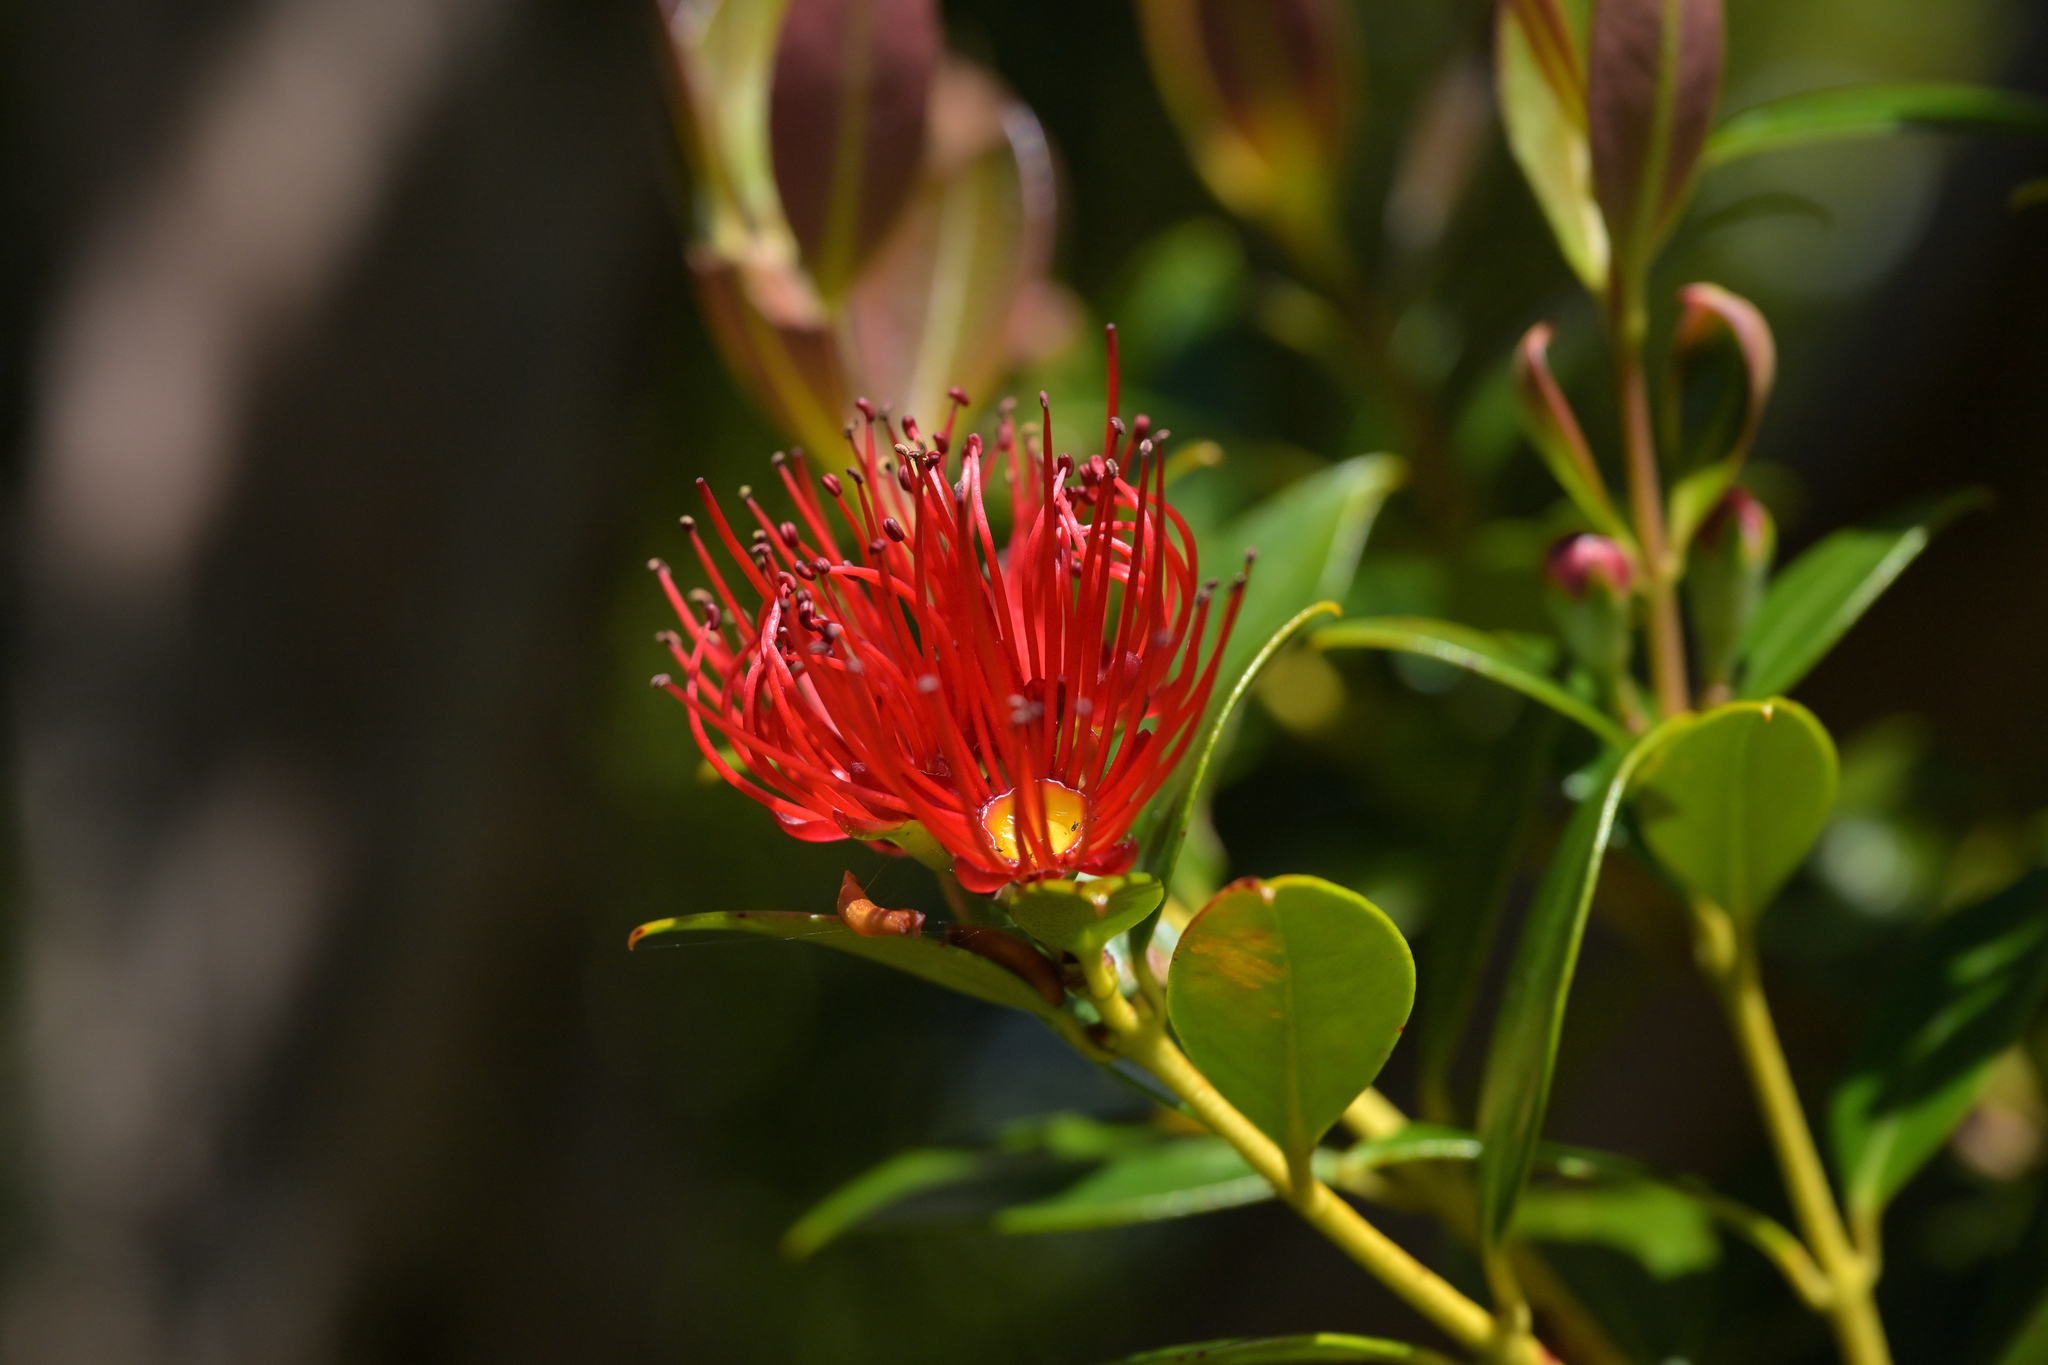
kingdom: Plantae
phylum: Tracheophyta
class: Magnoliopsida
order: Myrtales
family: Myrtaceae
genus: Metrosideros
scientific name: Metrosideros umbellata
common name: Southern rata
